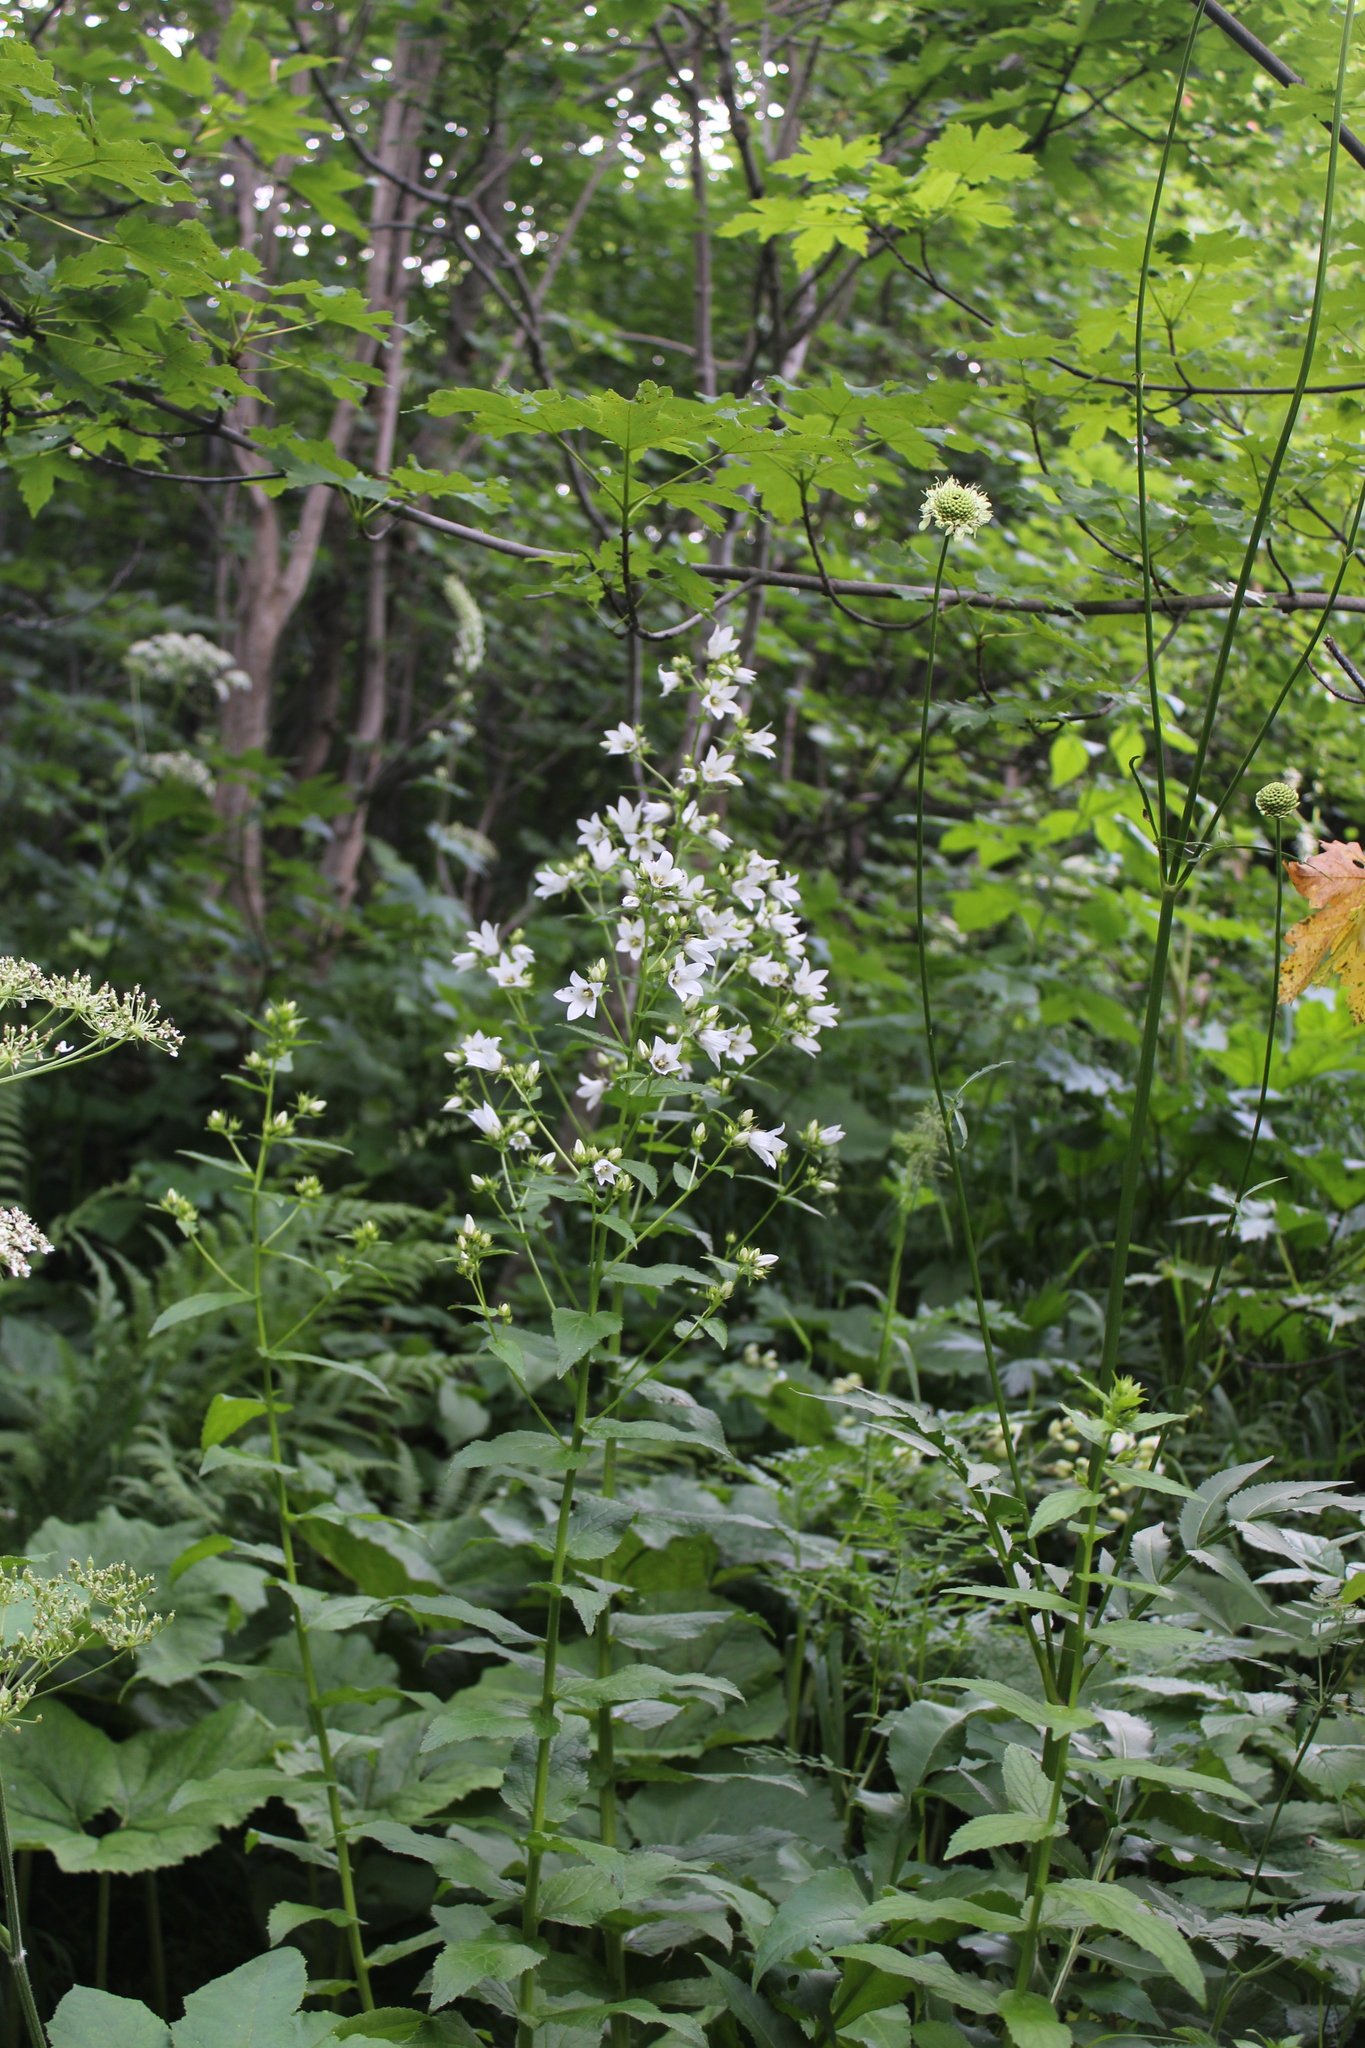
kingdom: Plantae
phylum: Tracheophyta
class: Magnoliopsida
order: Asterales
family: Campanulaceae
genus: Campanula
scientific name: Campanula lactiflora
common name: Milky bellflower
